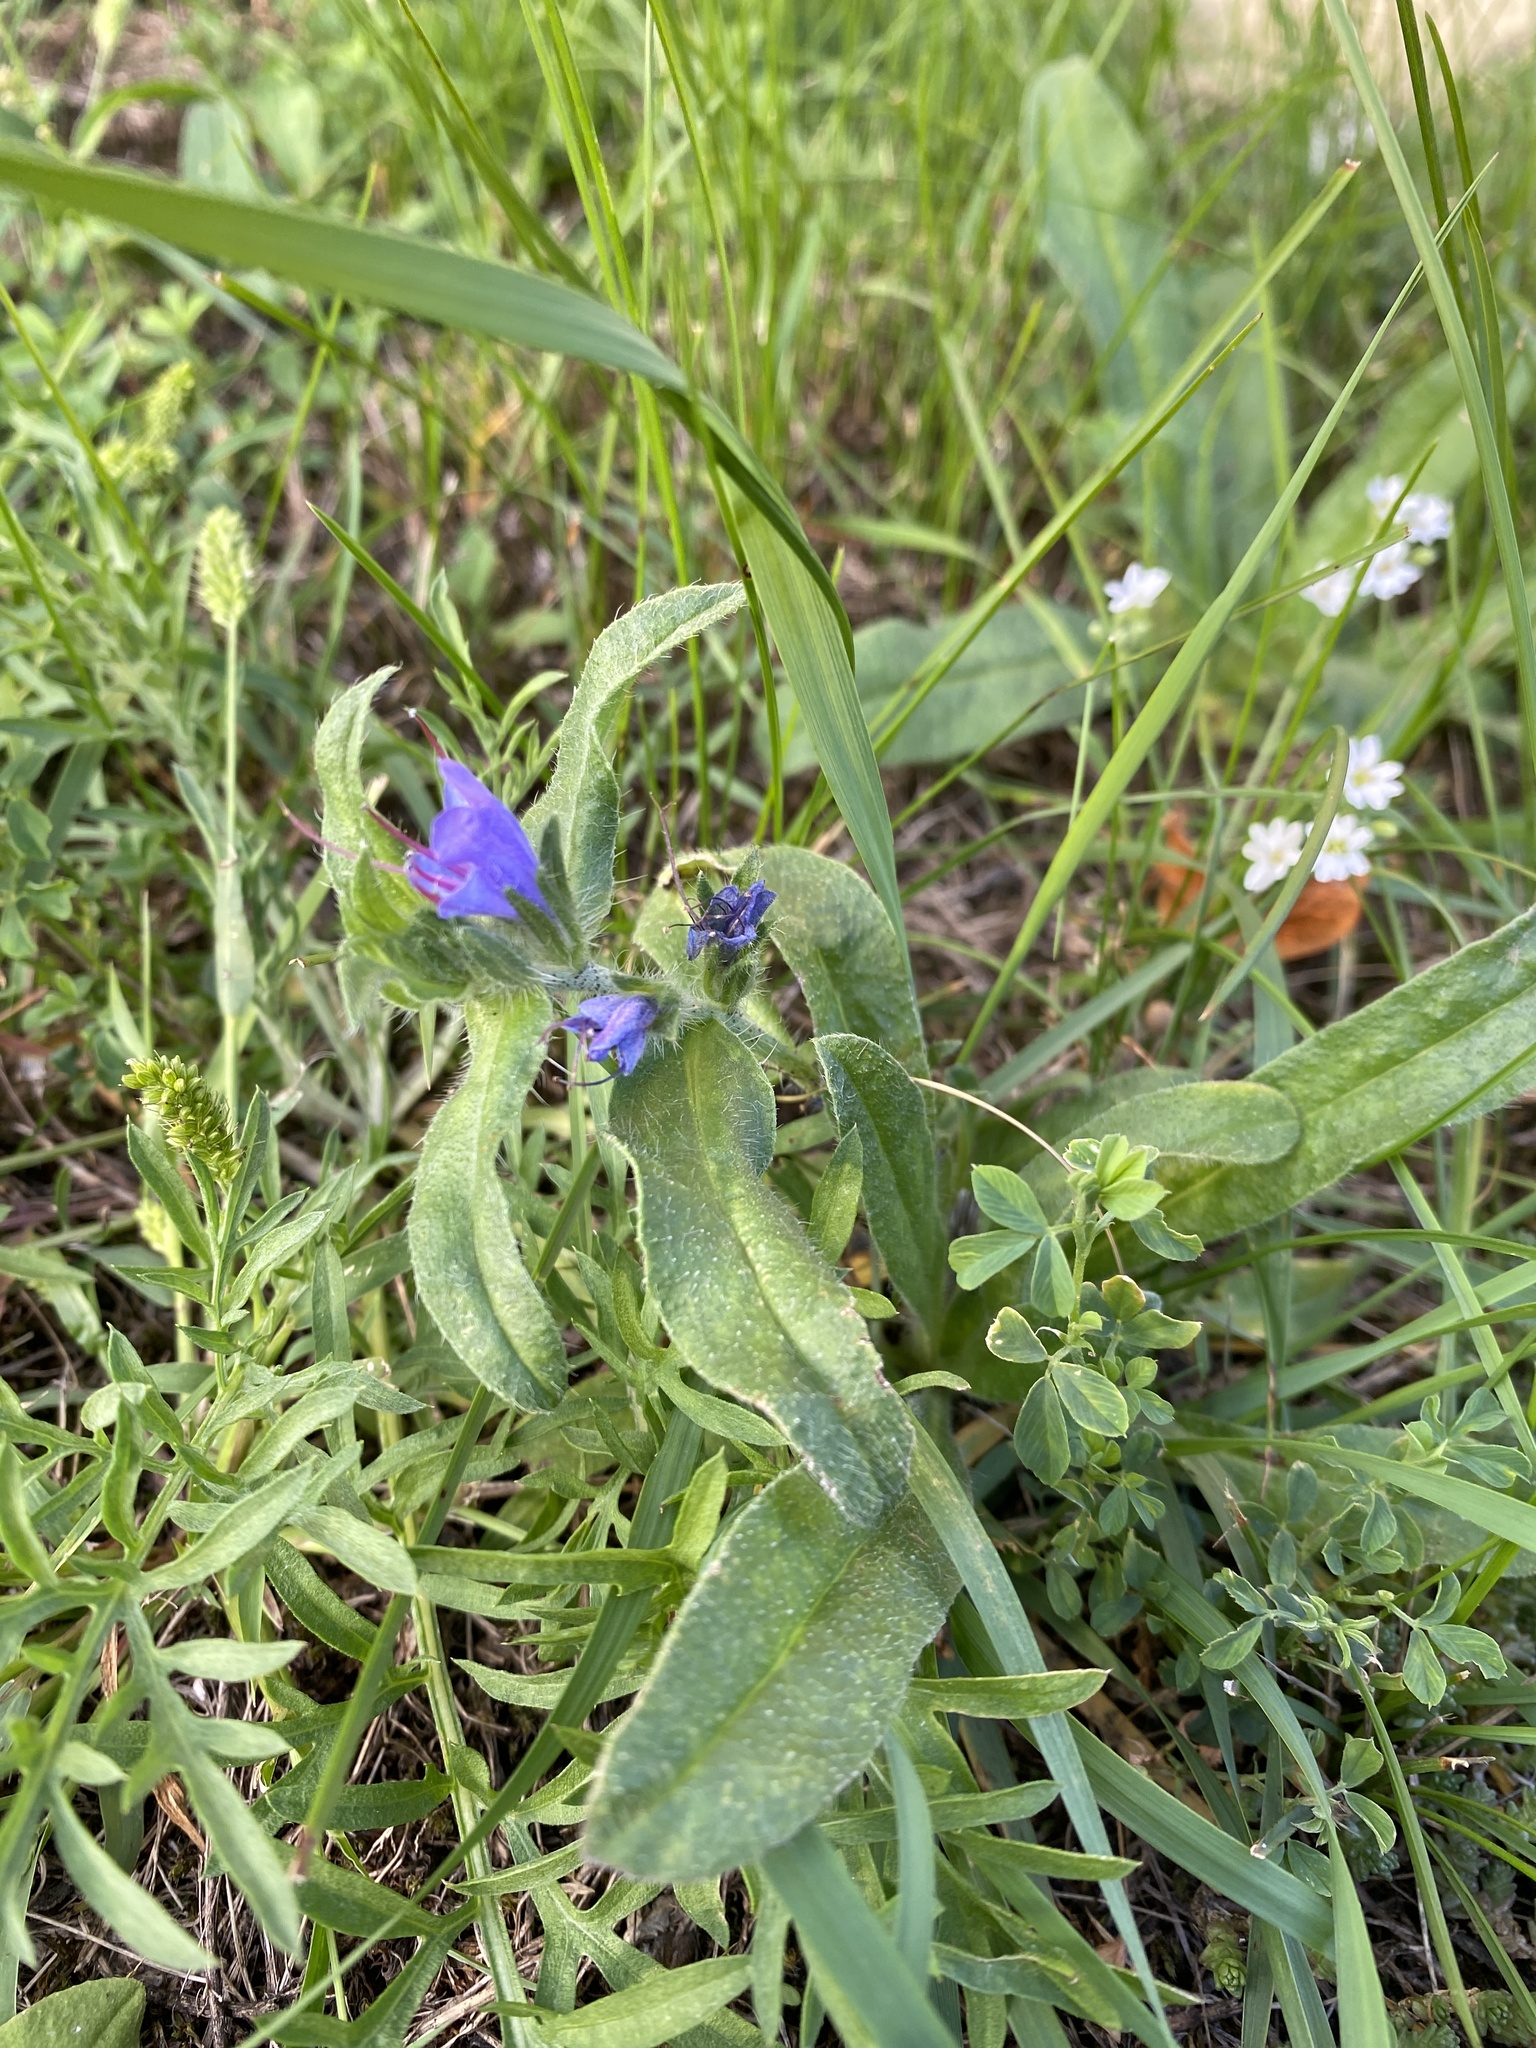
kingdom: Plantae
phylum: Tracheophyta
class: Magnoliopsida
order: Boraginales
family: Boraginaceae
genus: Echium
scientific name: Echium vulgare
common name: Common viper's bugloss
